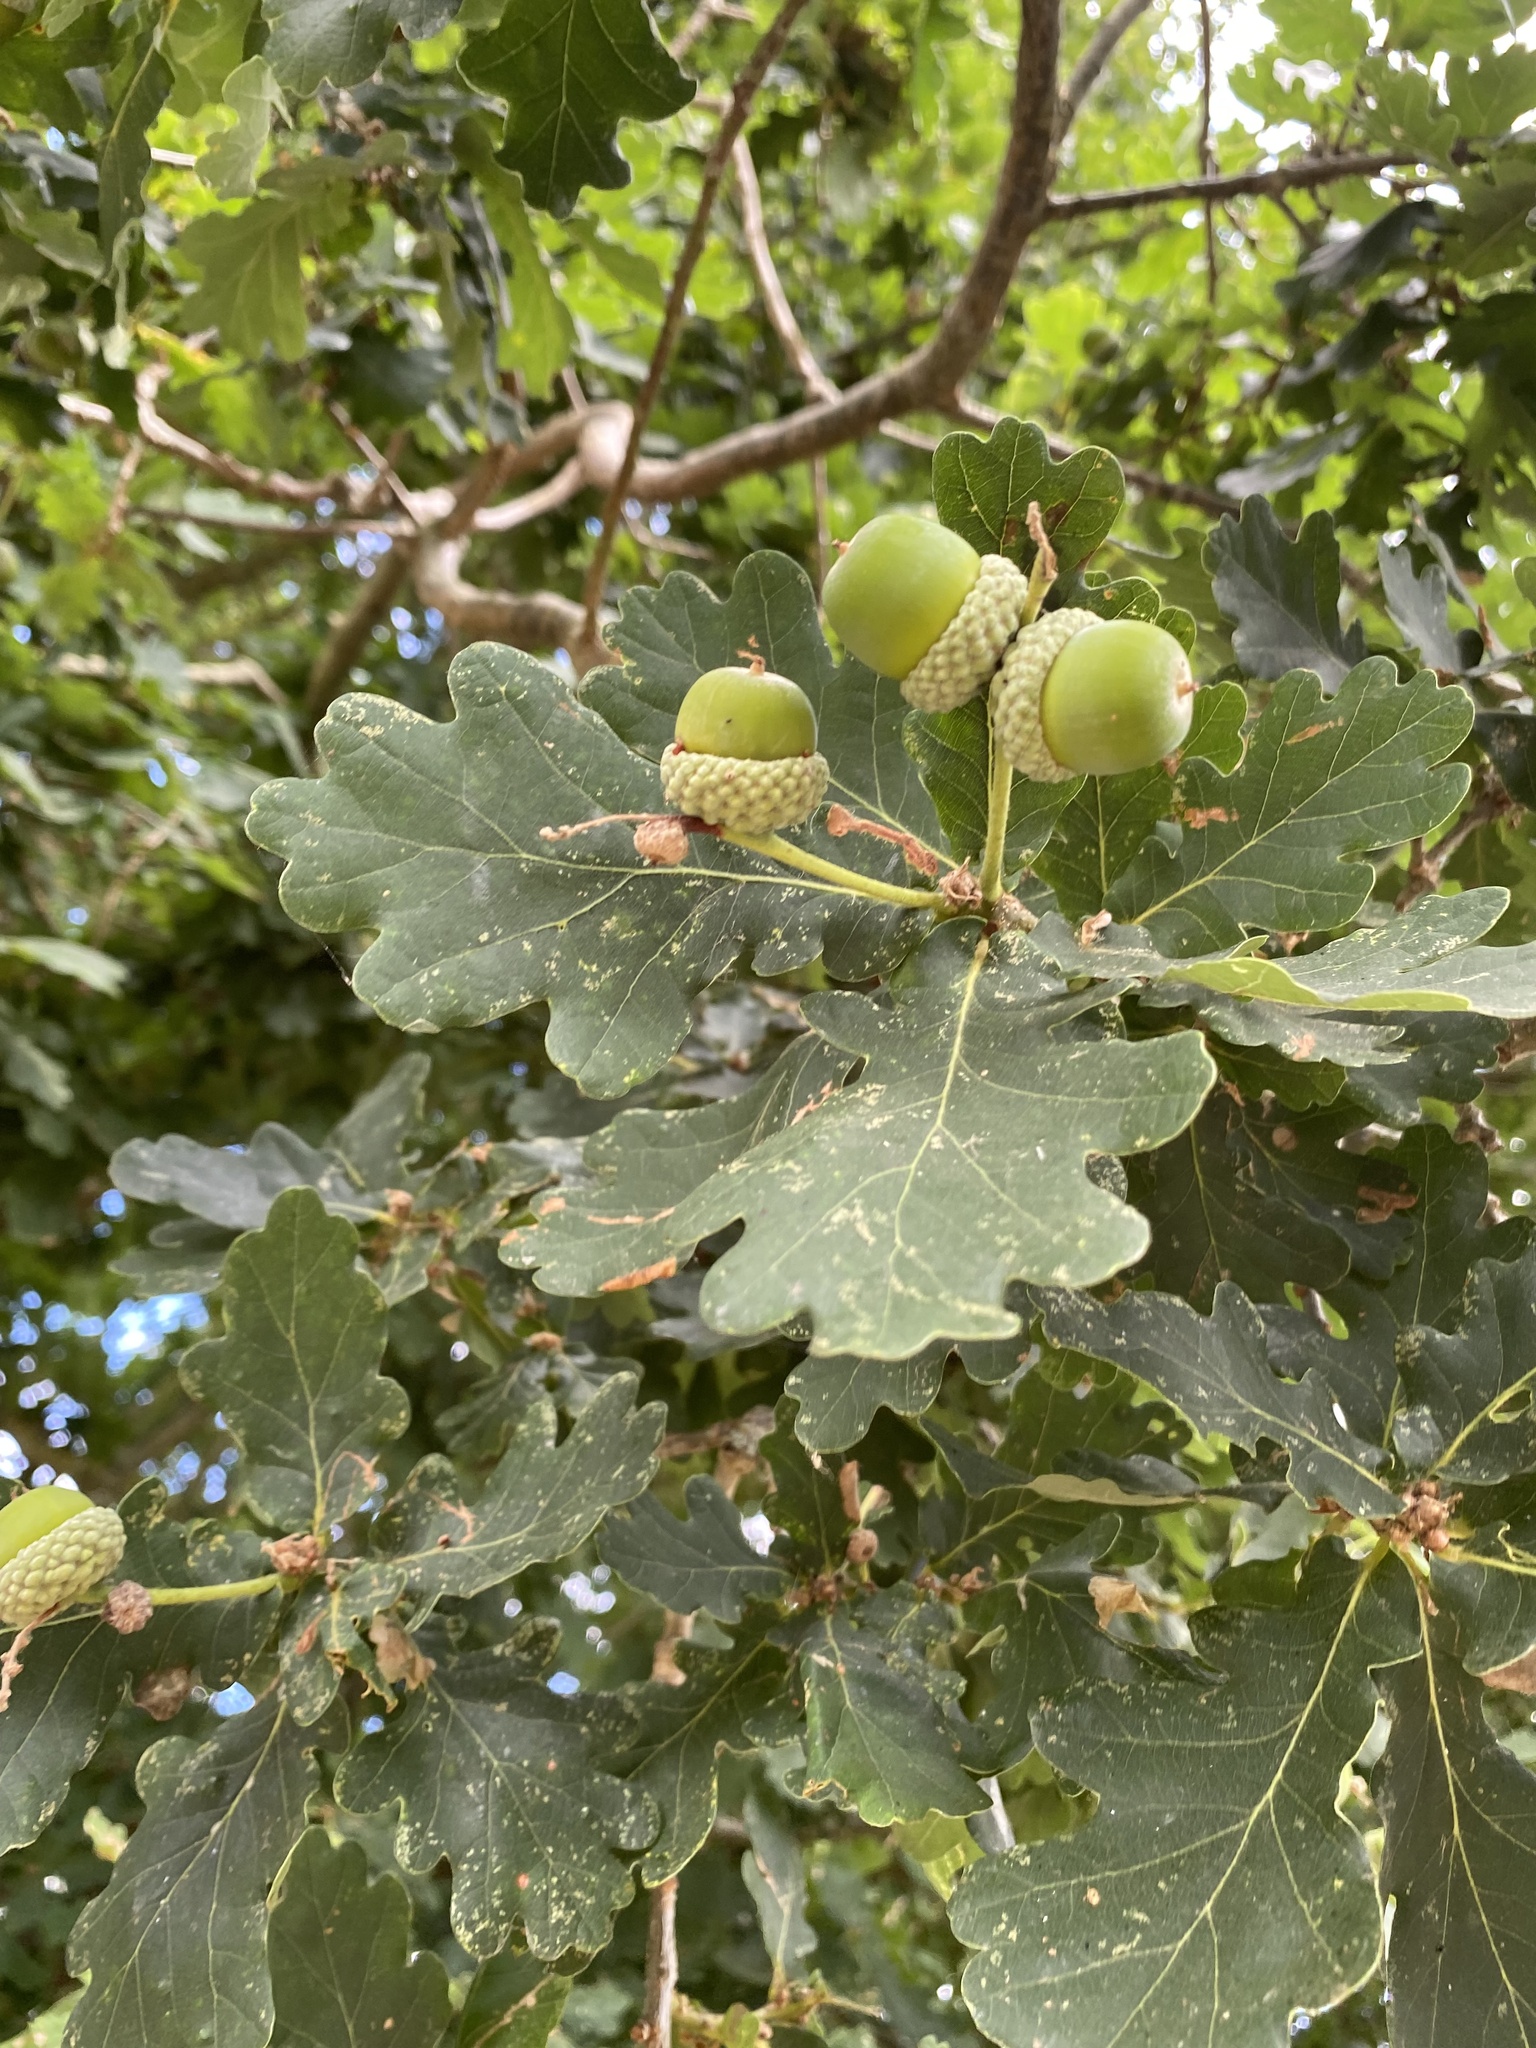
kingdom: Animalia
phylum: Arthropoda
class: Insecta
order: Hymenoptera
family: Cynipidae
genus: Andricus
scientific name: Andricus foecundatrix
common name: Artichoke gall
